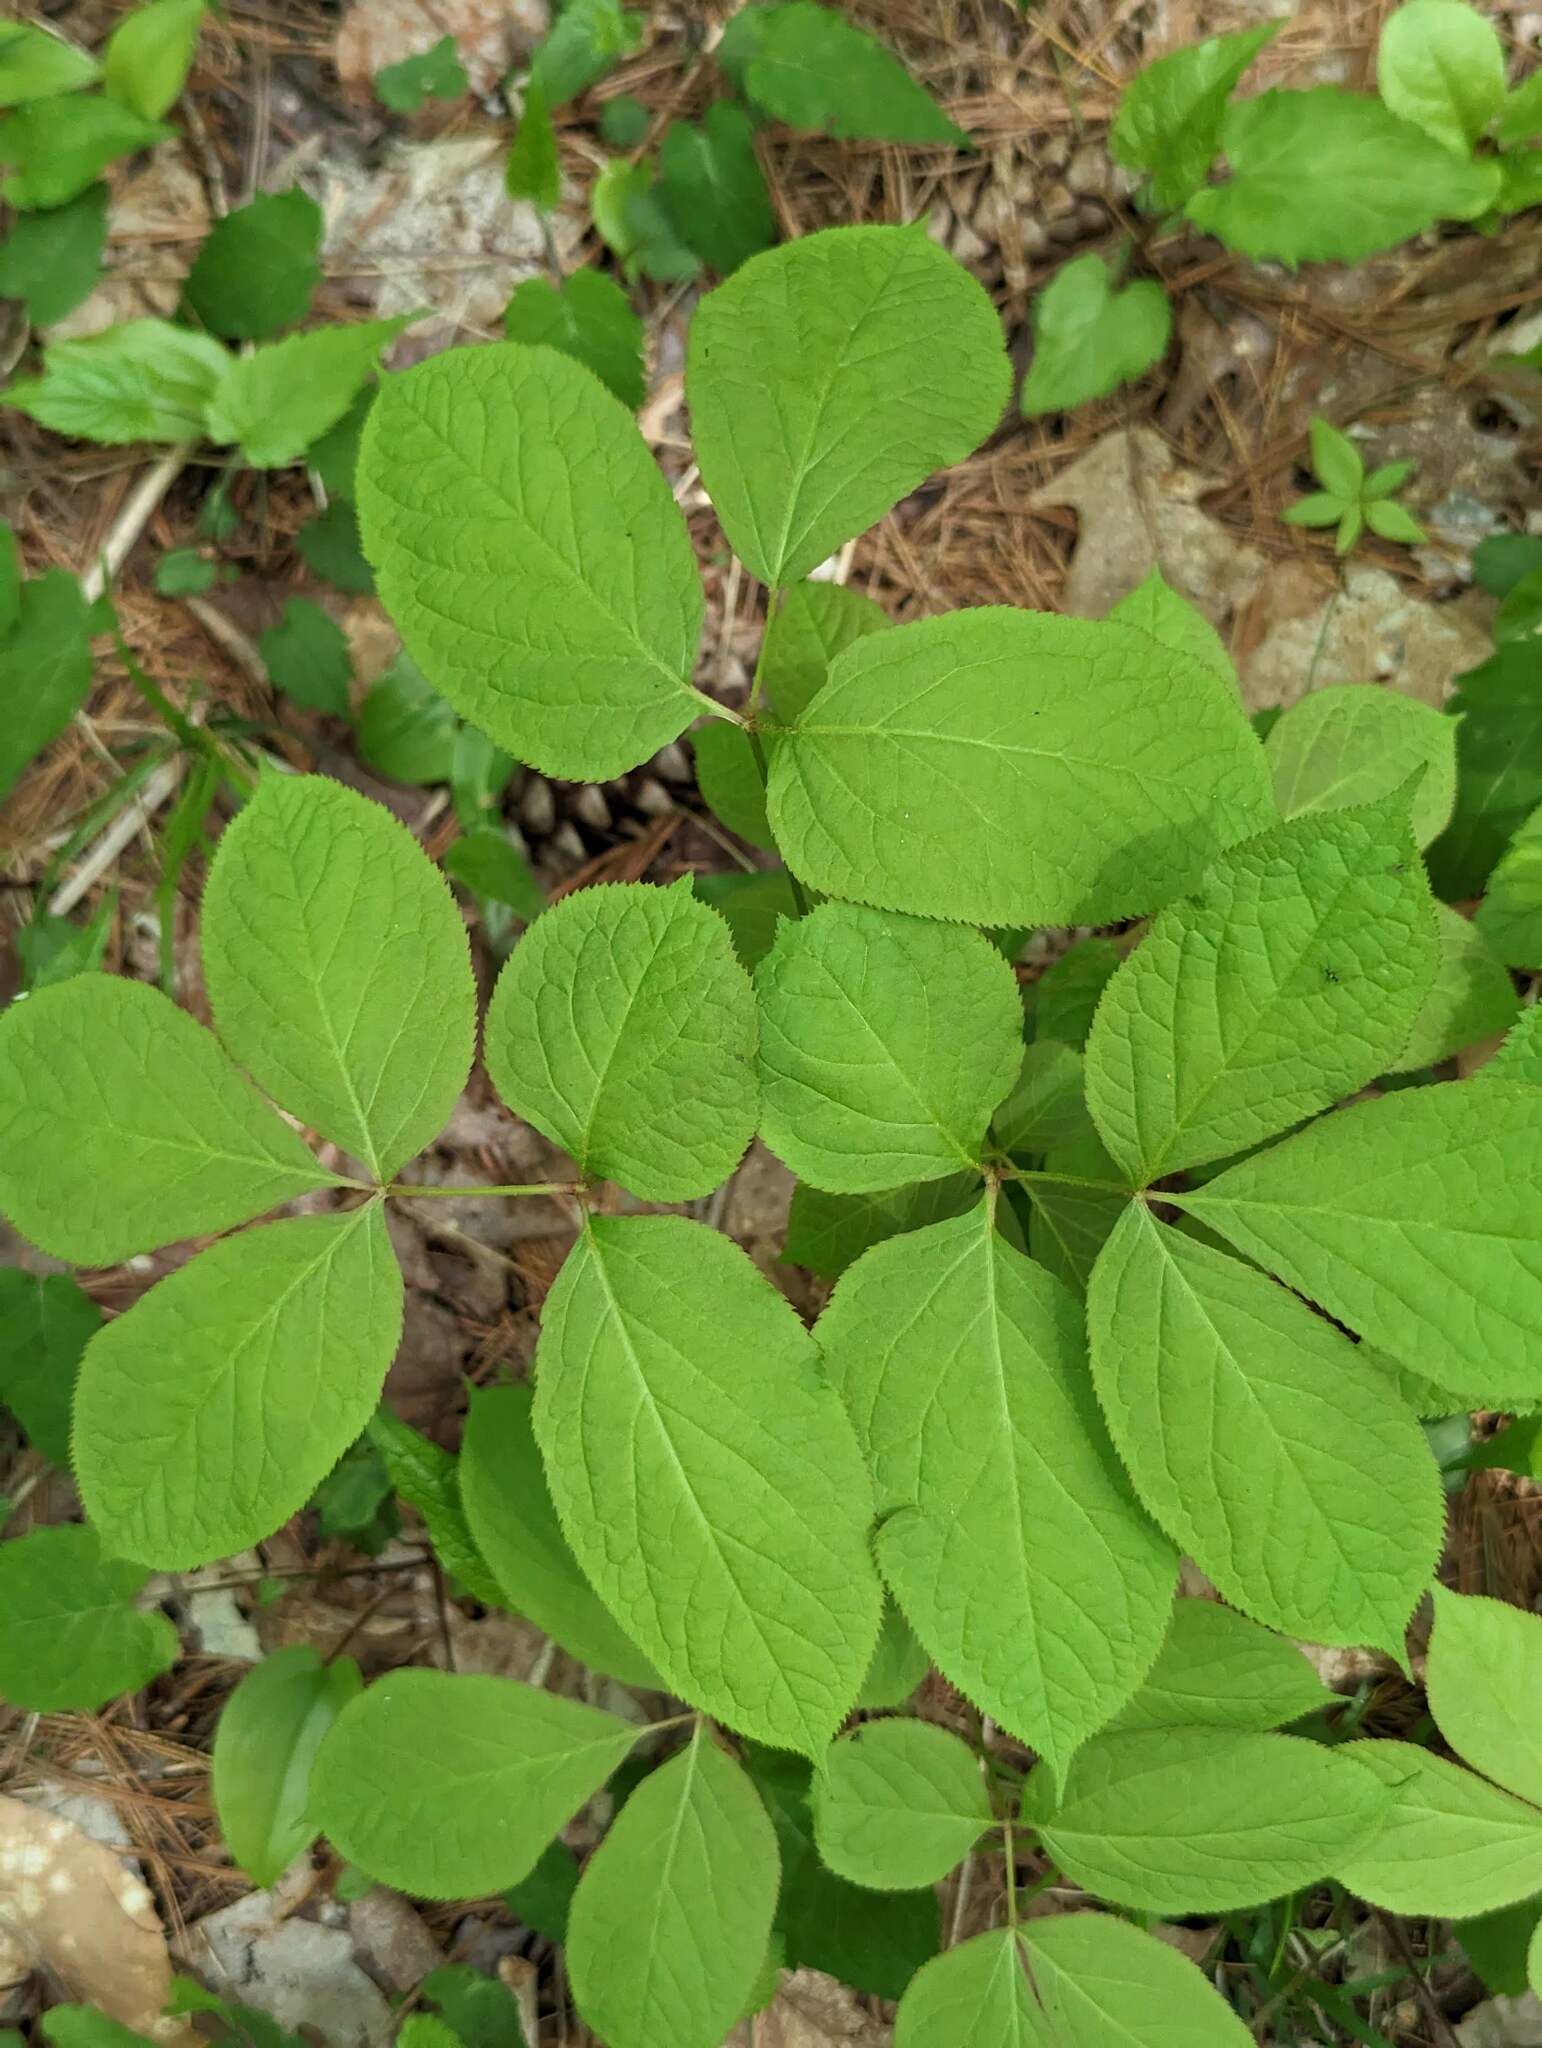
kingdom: Plantae
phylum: Tracheophyta
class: Magnoliopsida
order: Apiales
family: Araliaceae
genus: Aralia
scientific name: Aralia nudicaulis
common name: Wild sarsaparilla
